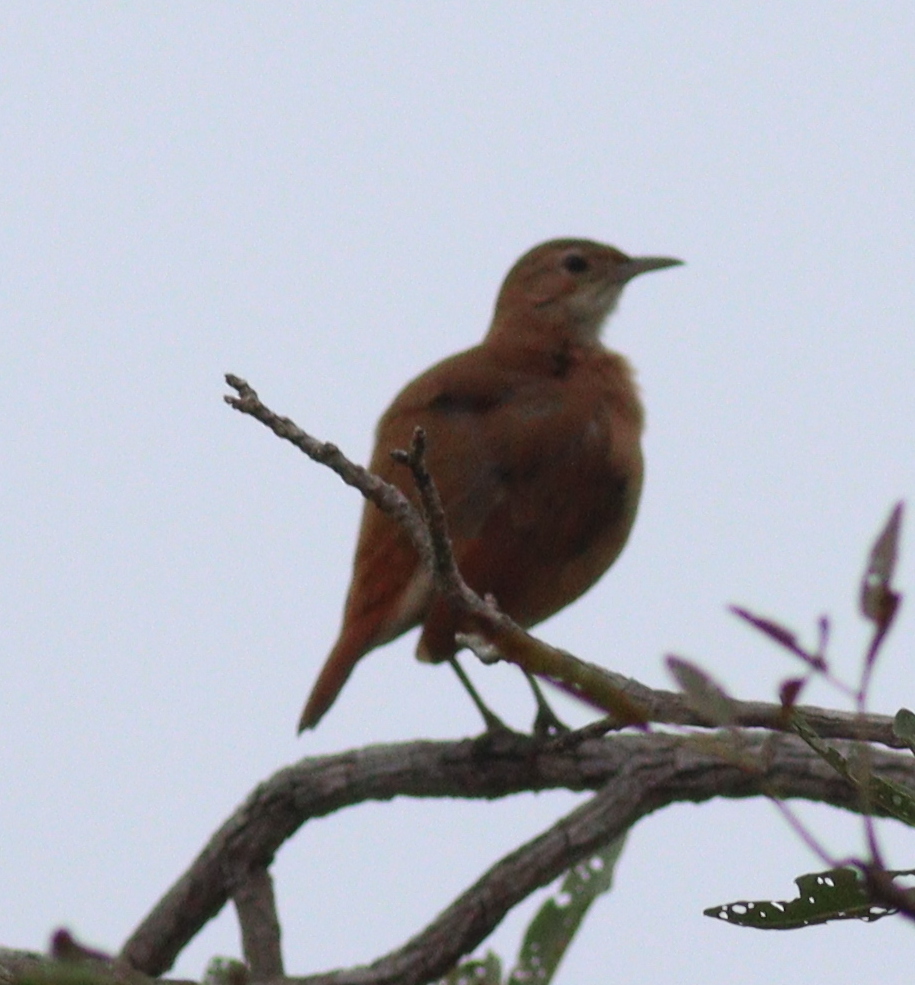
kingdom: Animalia
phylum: Chordata
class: Aves
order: Passeriformes
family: Furnariidae
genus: Furnarius
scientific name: Furnarius rufus
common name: Rufous hornero
